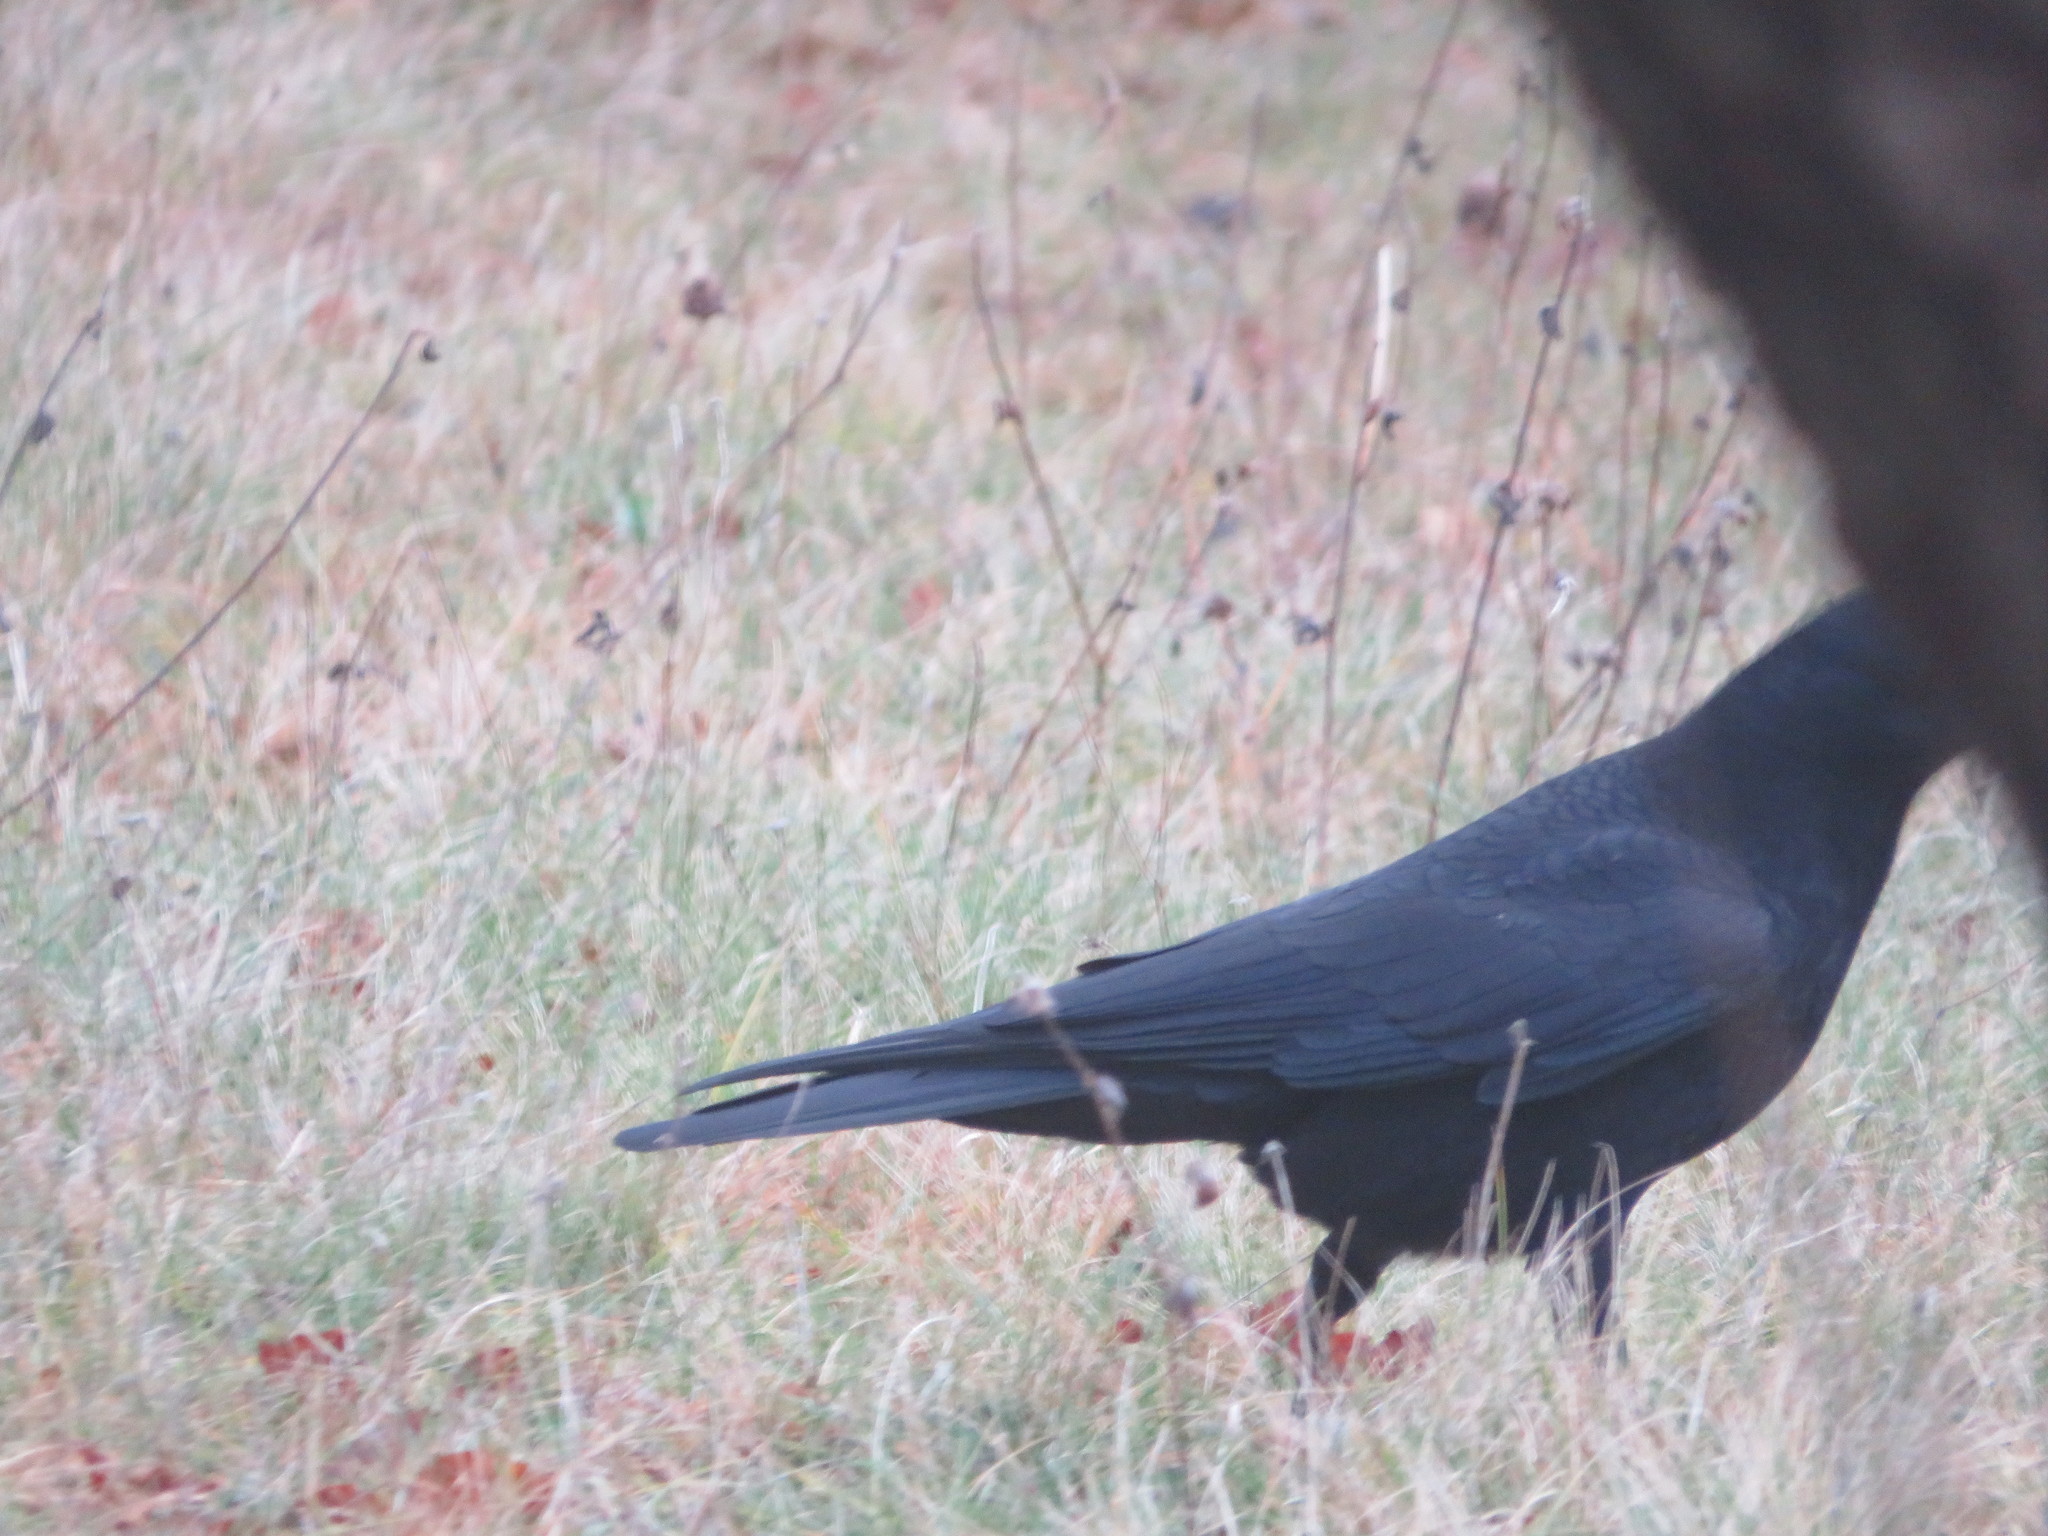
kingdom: Animalia
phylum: Chordata
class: Aves
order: Passeriformes
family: Corvidae
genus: Corvus
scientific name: Corvus brachyrhynchos
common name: American crow
